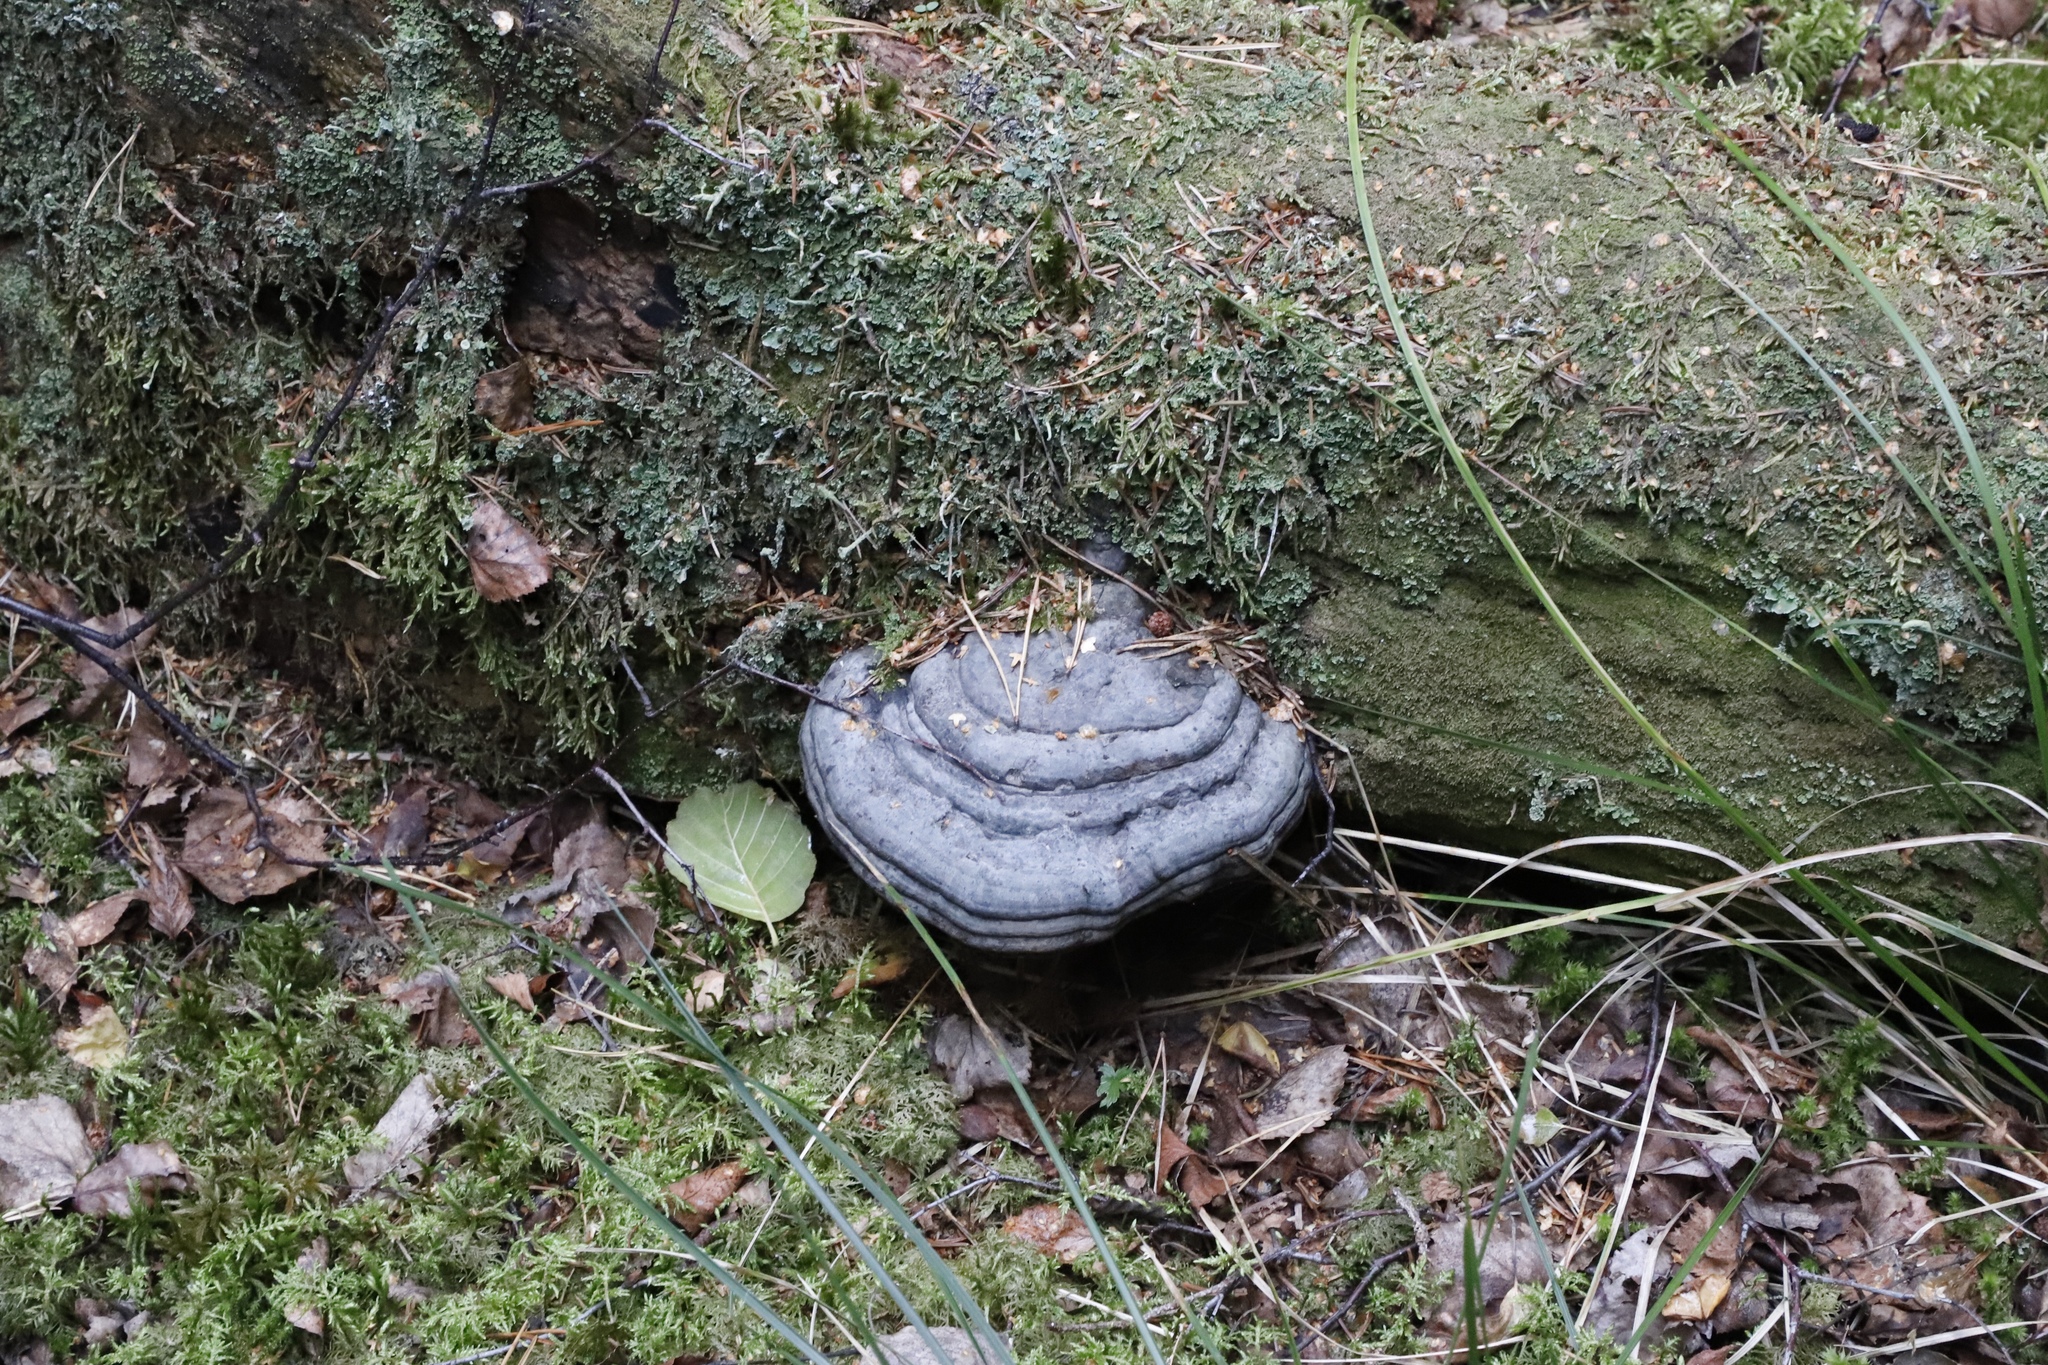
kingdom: Fungi
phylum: Basidiomycota
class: Agaricomycetes
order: Polyporales
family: Polyporaceae
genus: Fomes
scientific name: Fomes fomentarius
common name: Hoof fungus
